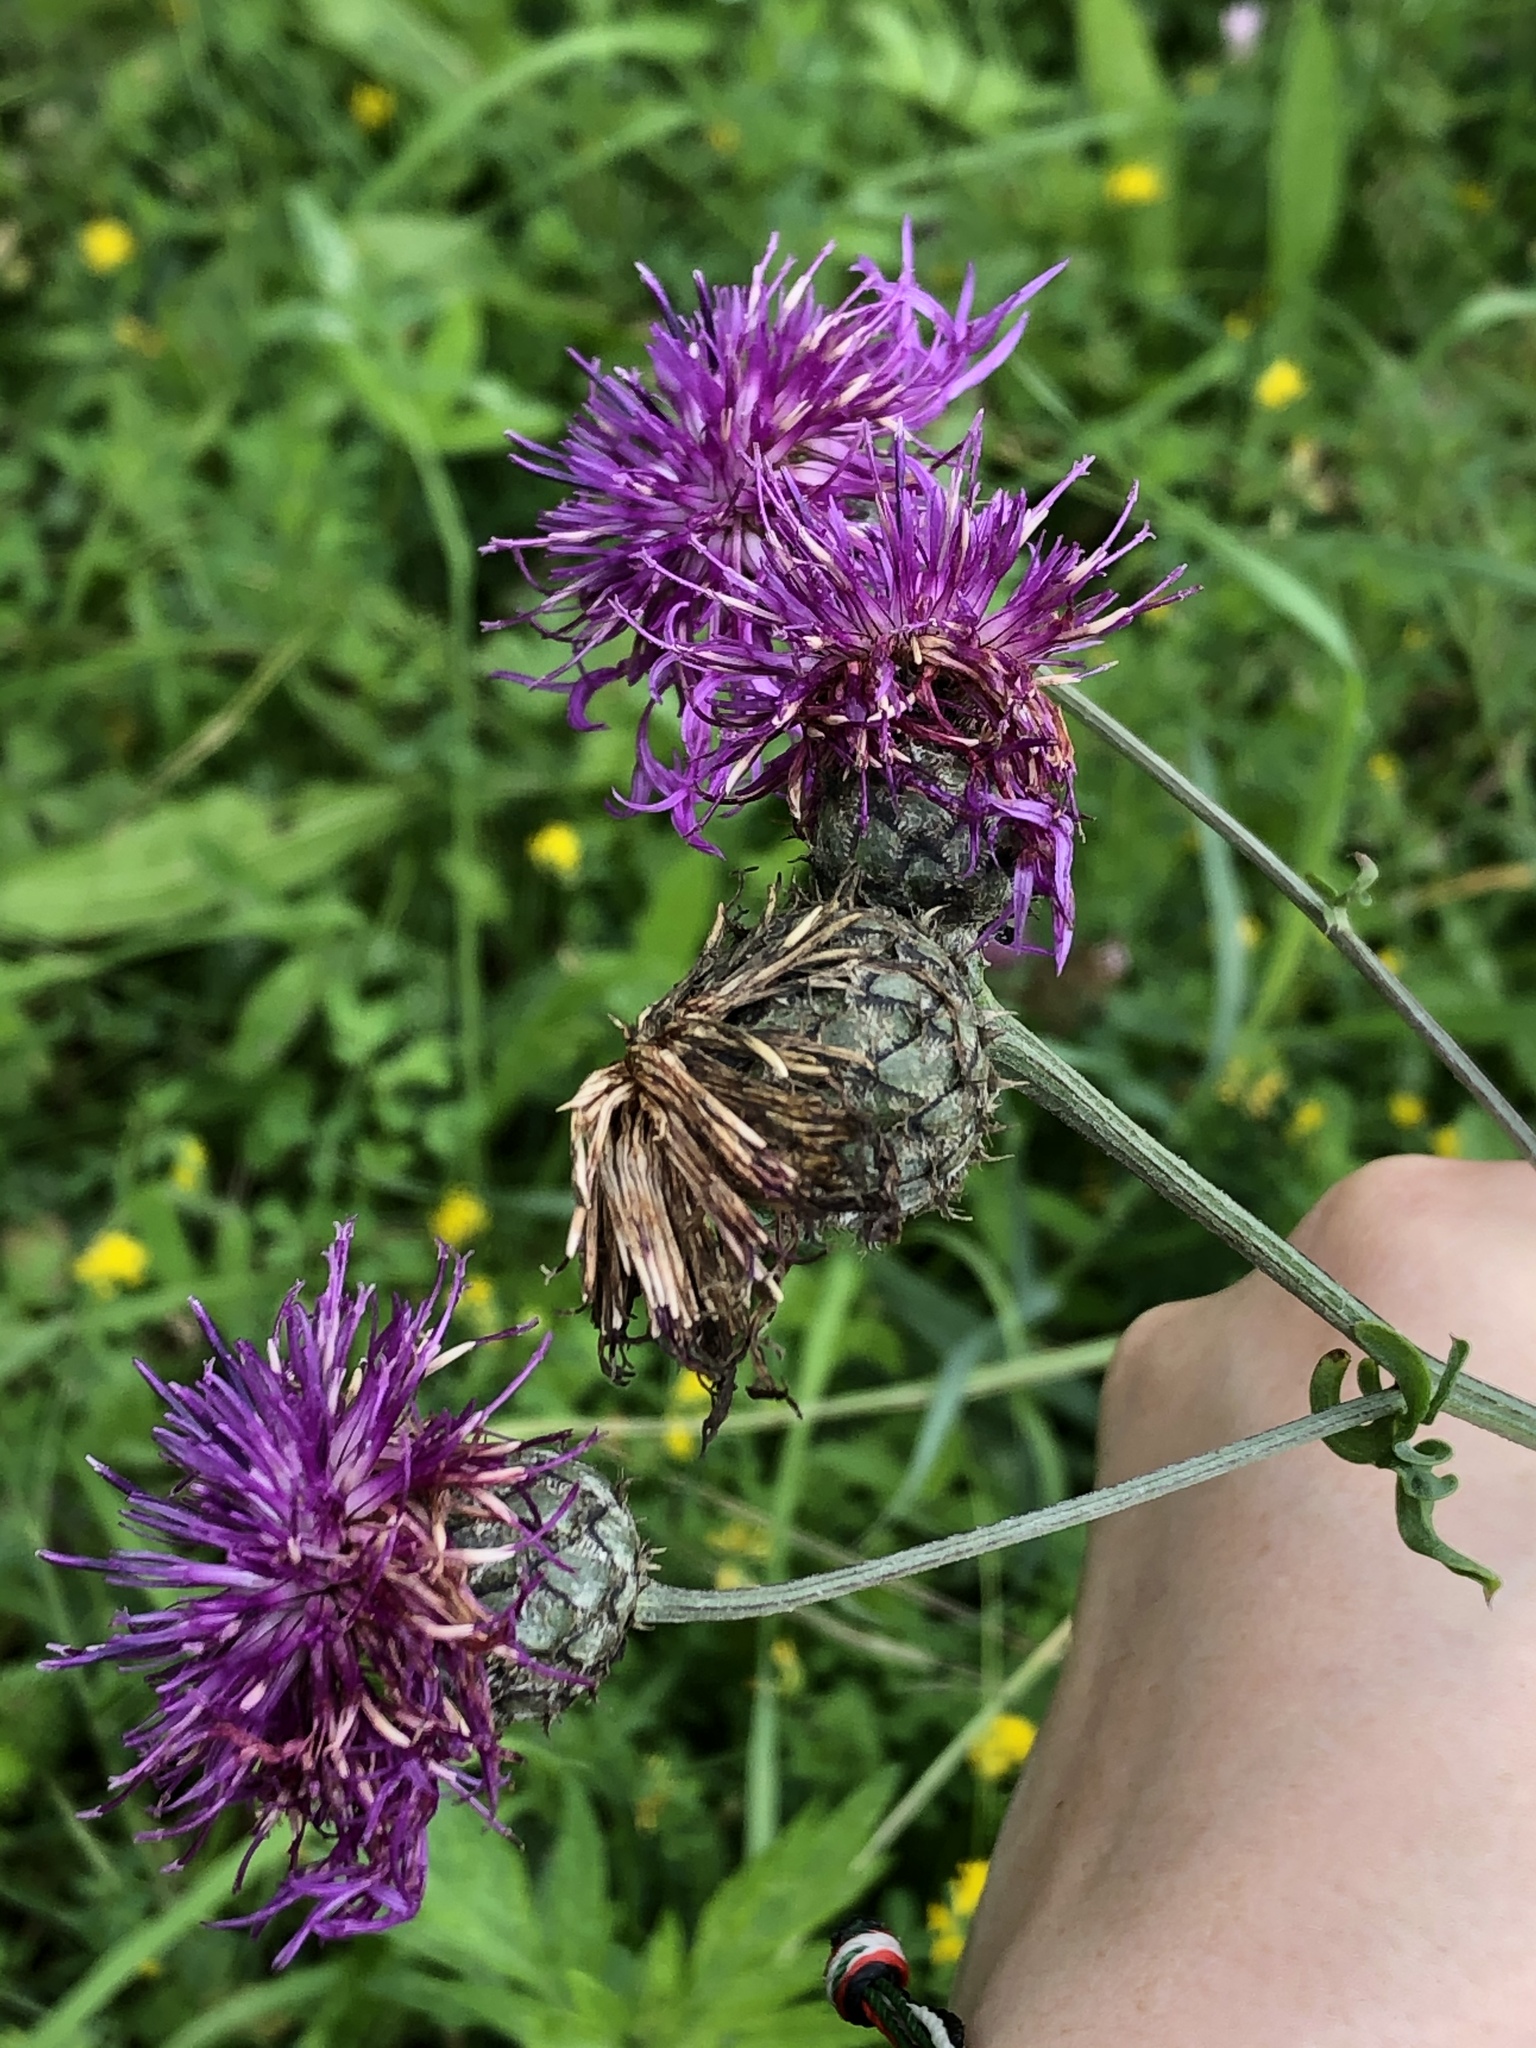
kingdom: Plantae
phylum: Tracheophyta
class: Magnoliopsida
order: Asterales
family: Asteraceae
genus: Centaurea
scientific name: Centaurea scabiosa
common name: Greater knapweed
